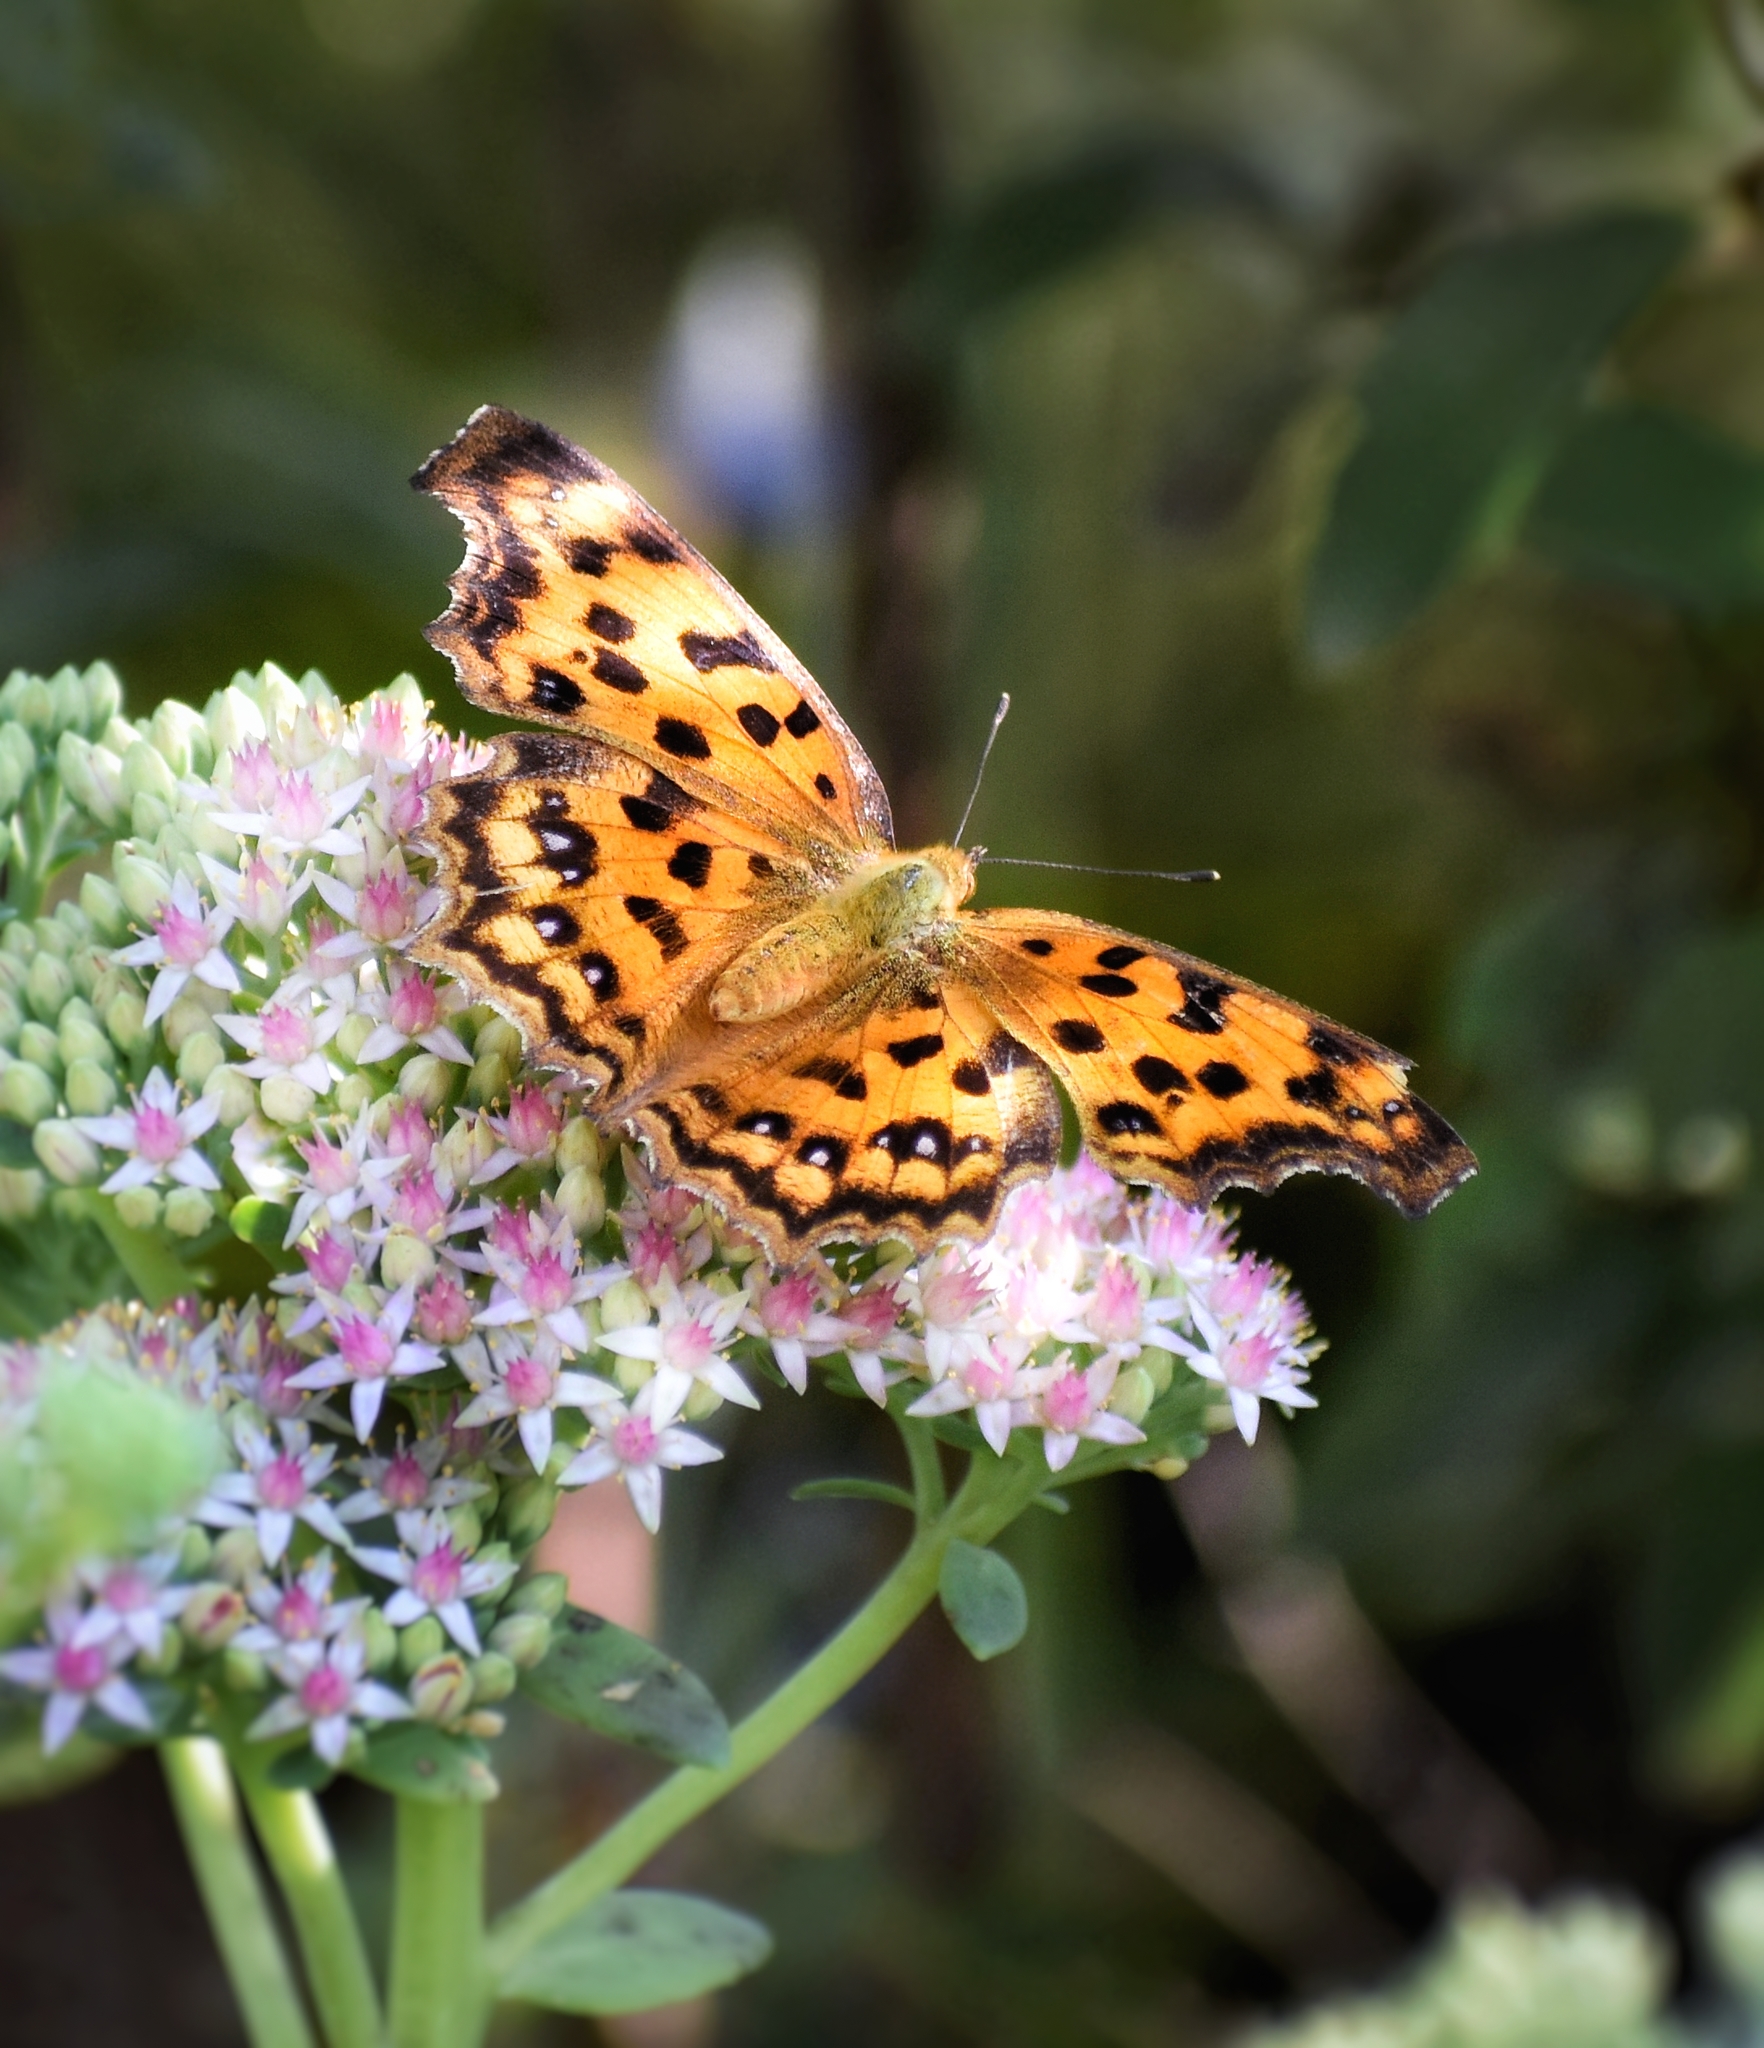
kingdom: Animalia
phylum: Arthropoda
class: Insecta
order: Lepidoptera
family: Nymphalidae
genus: Polygonia
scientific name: Polygonia c-aureum
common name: Asian comma
